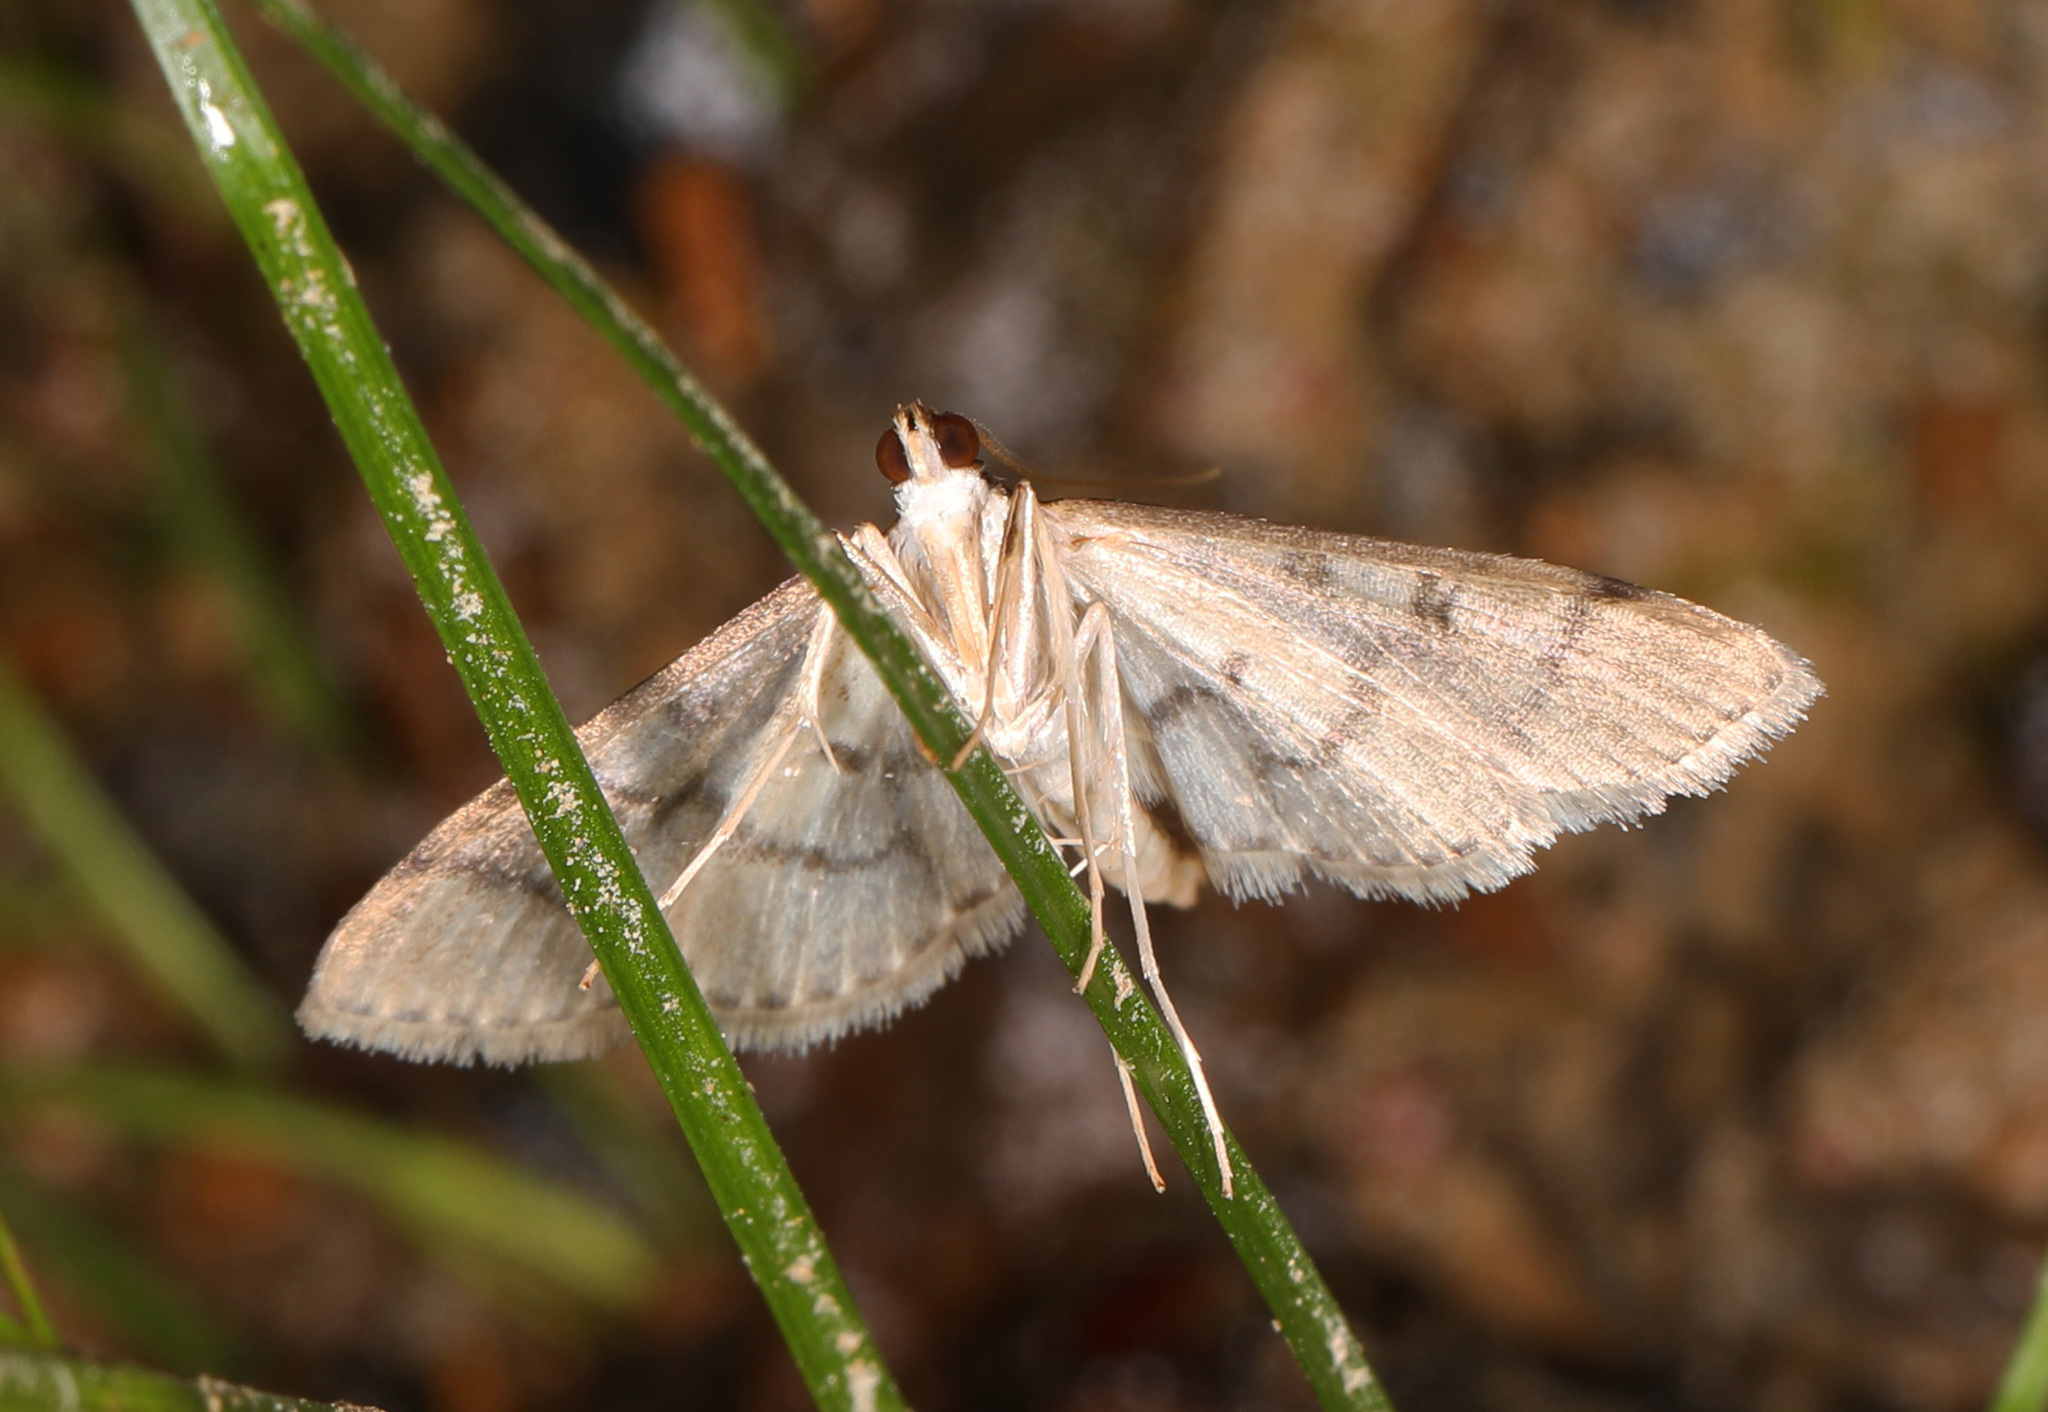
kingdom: Animalia
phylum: Arthropoda
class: Insecta
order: Lepidoptera
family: Crambidae
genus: Lamprosema
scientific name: Lamprosema Blepharomastix ranalis
